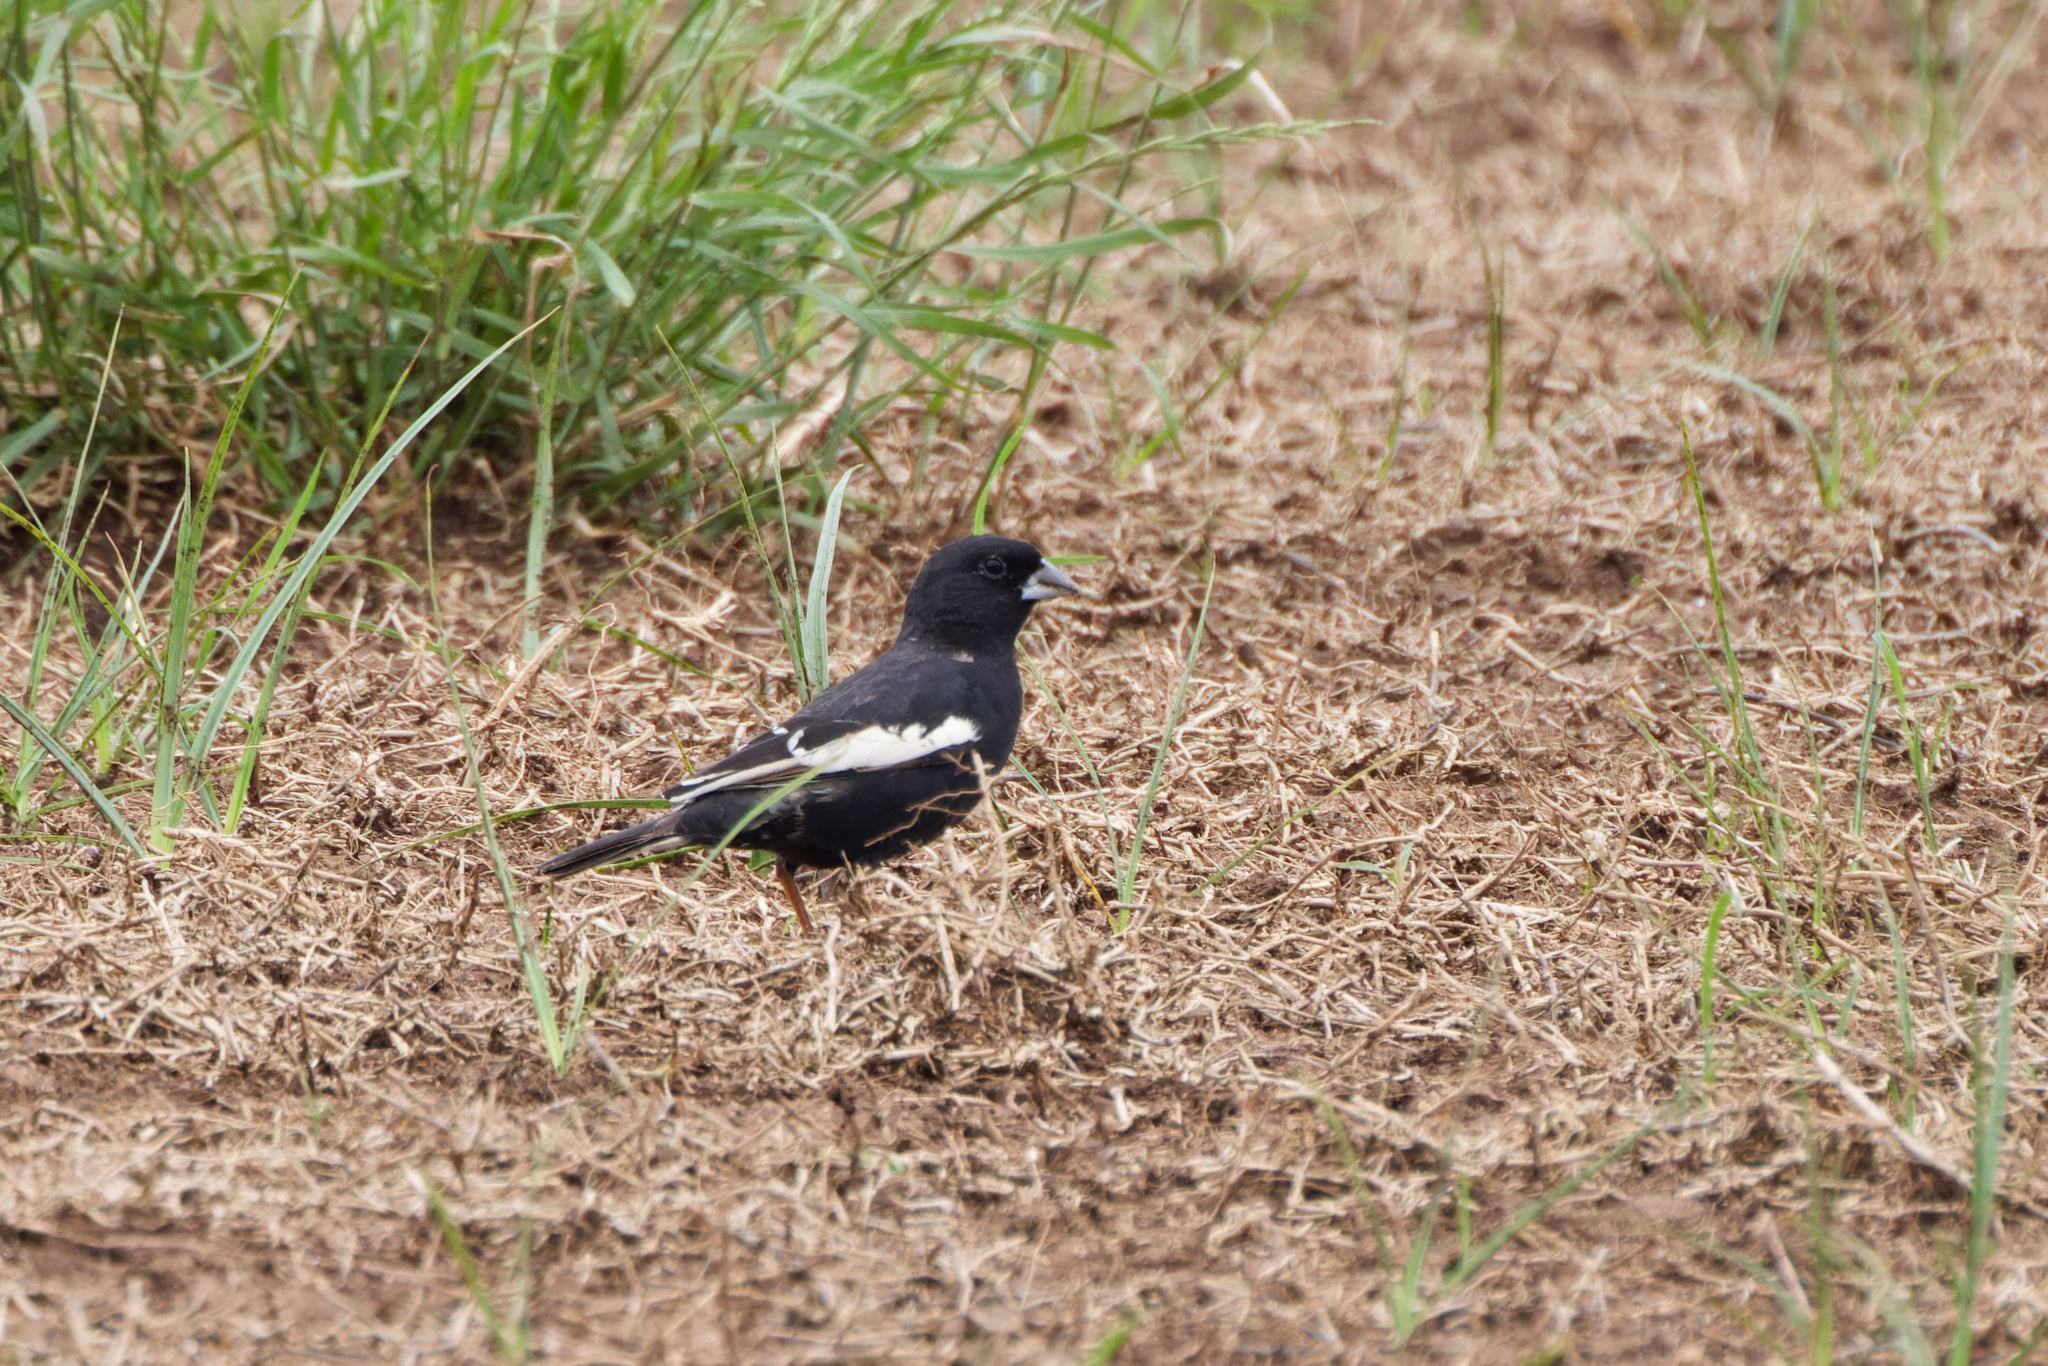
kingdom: Animalia
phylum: Chordata
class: Aves
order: Passeriformes
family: Passerellidae
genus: Calamospiza
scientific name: Calamospiza melanocorys
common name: Lark bunting
